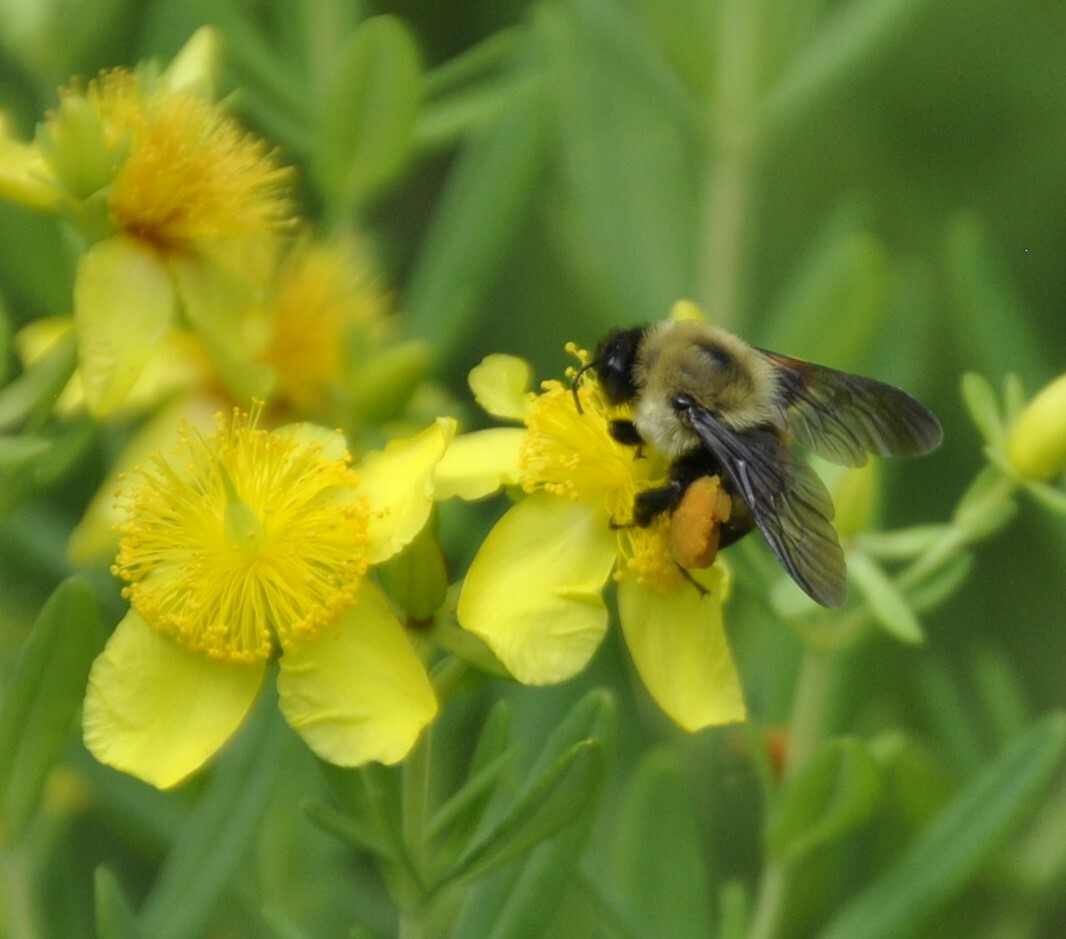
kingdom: Animalia
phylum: Arthropoda
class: Insecta
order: Hymenoptera
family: Apidae
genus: Bombus
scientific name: Bombus griseocollis
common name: Brown-belted bumble bee
